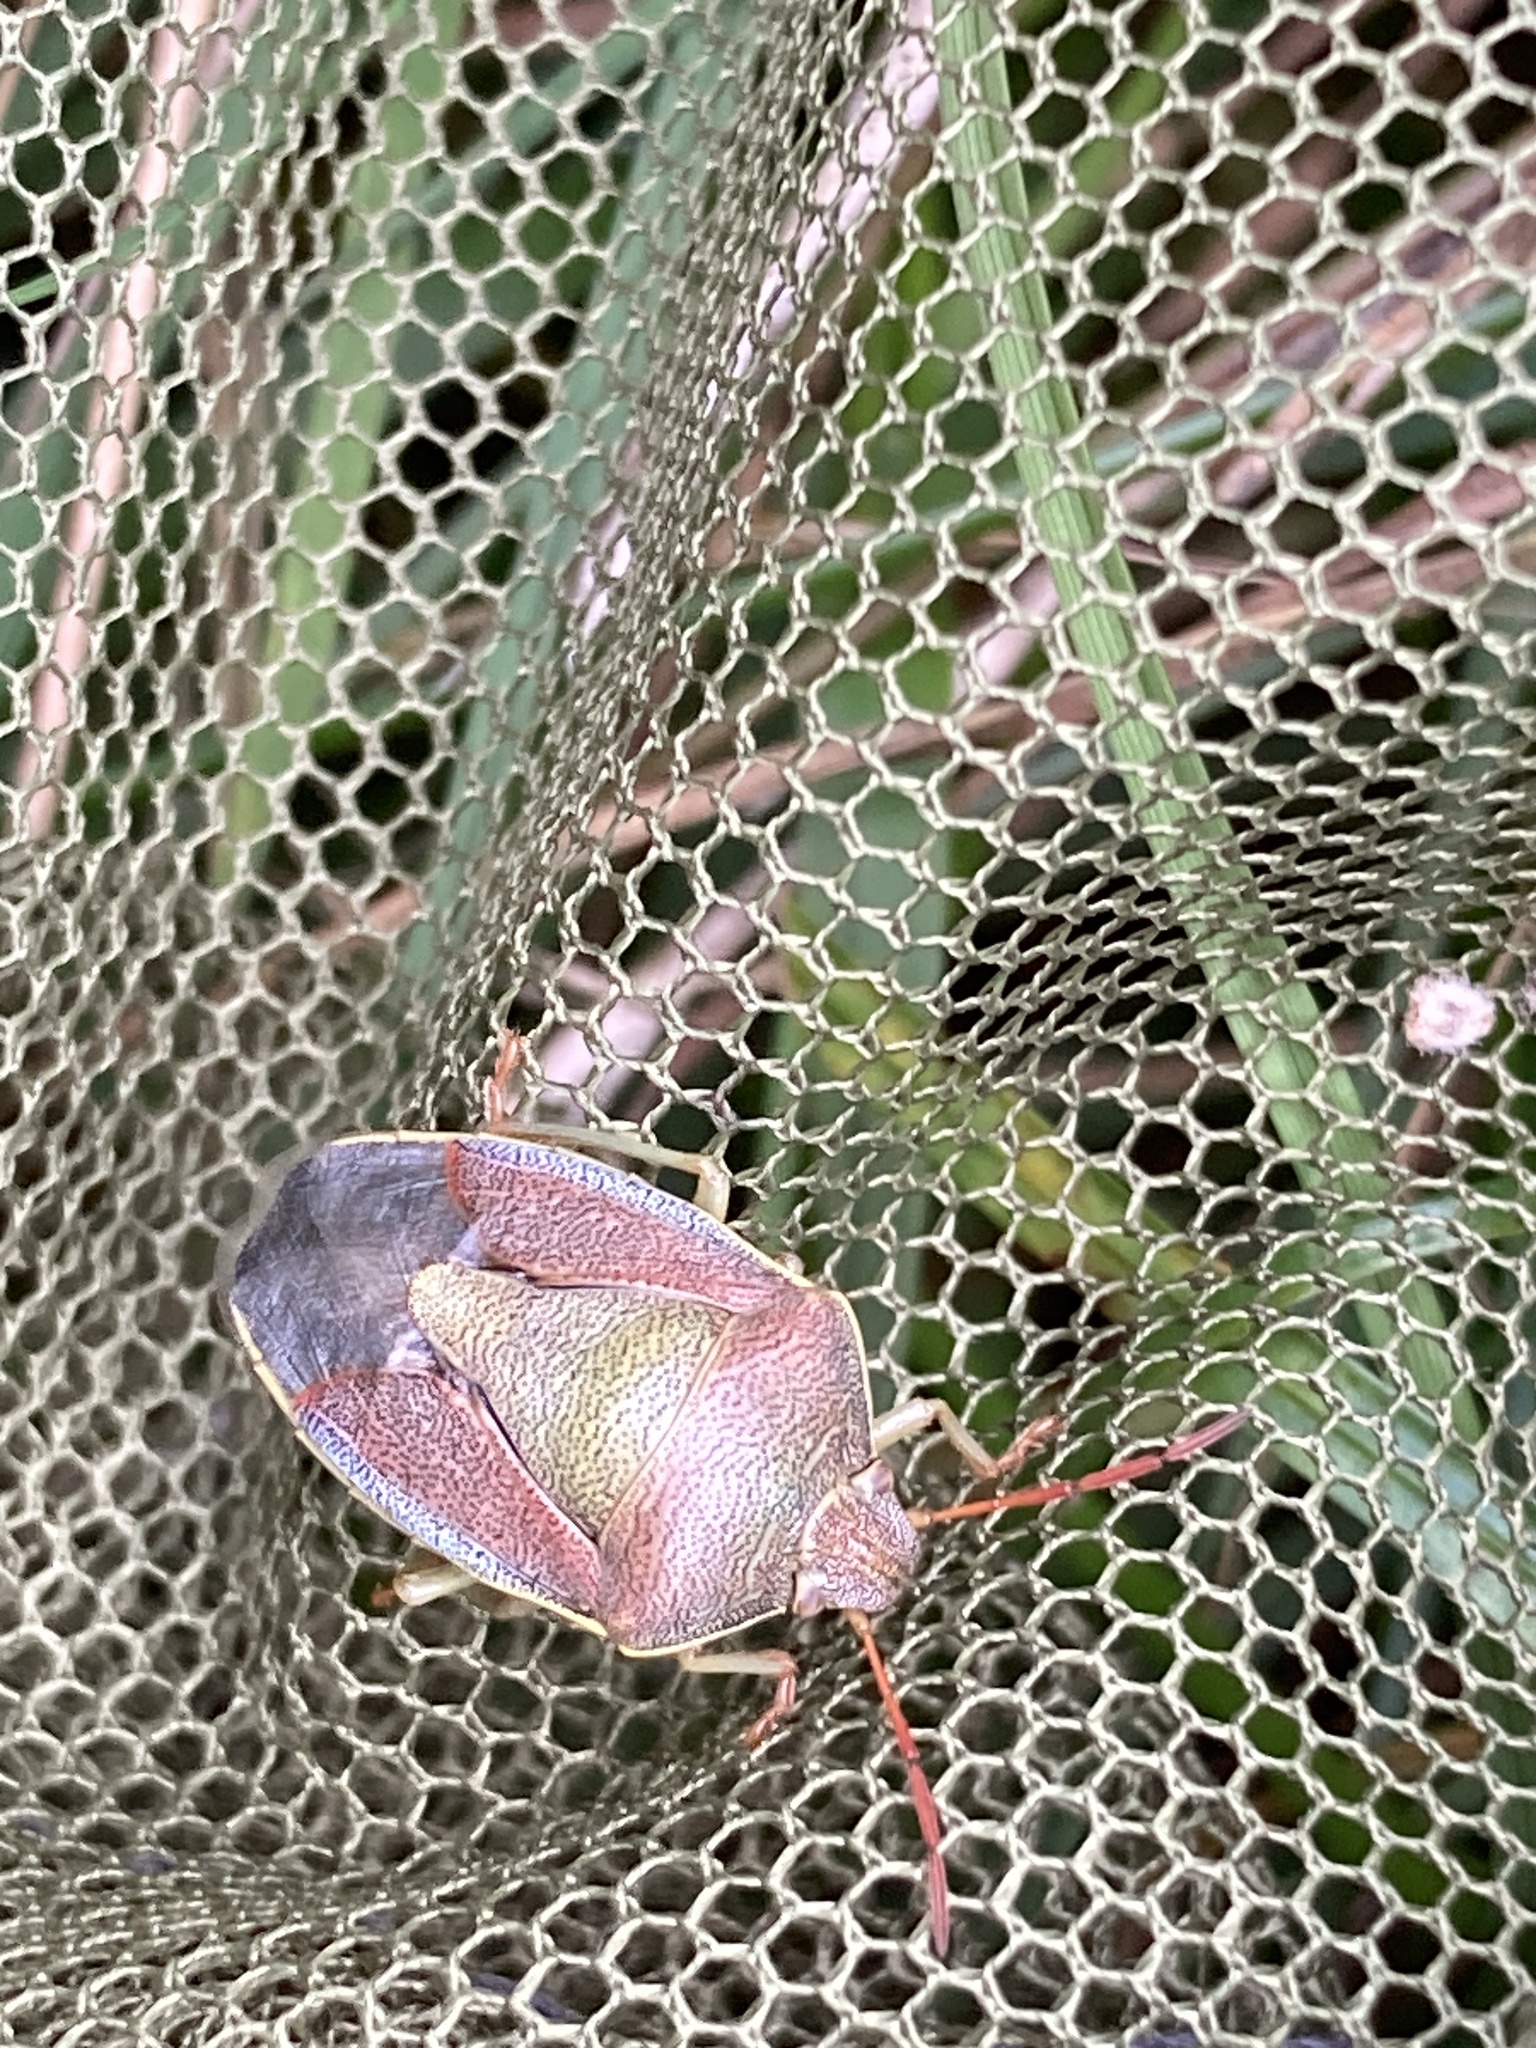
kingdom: Animalia
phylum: Arthropoda
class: Insecta
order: Hemiptera
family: Pentatomidae
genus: Piezodorus
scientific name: Piezodorus lituratus
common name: Stink bug
